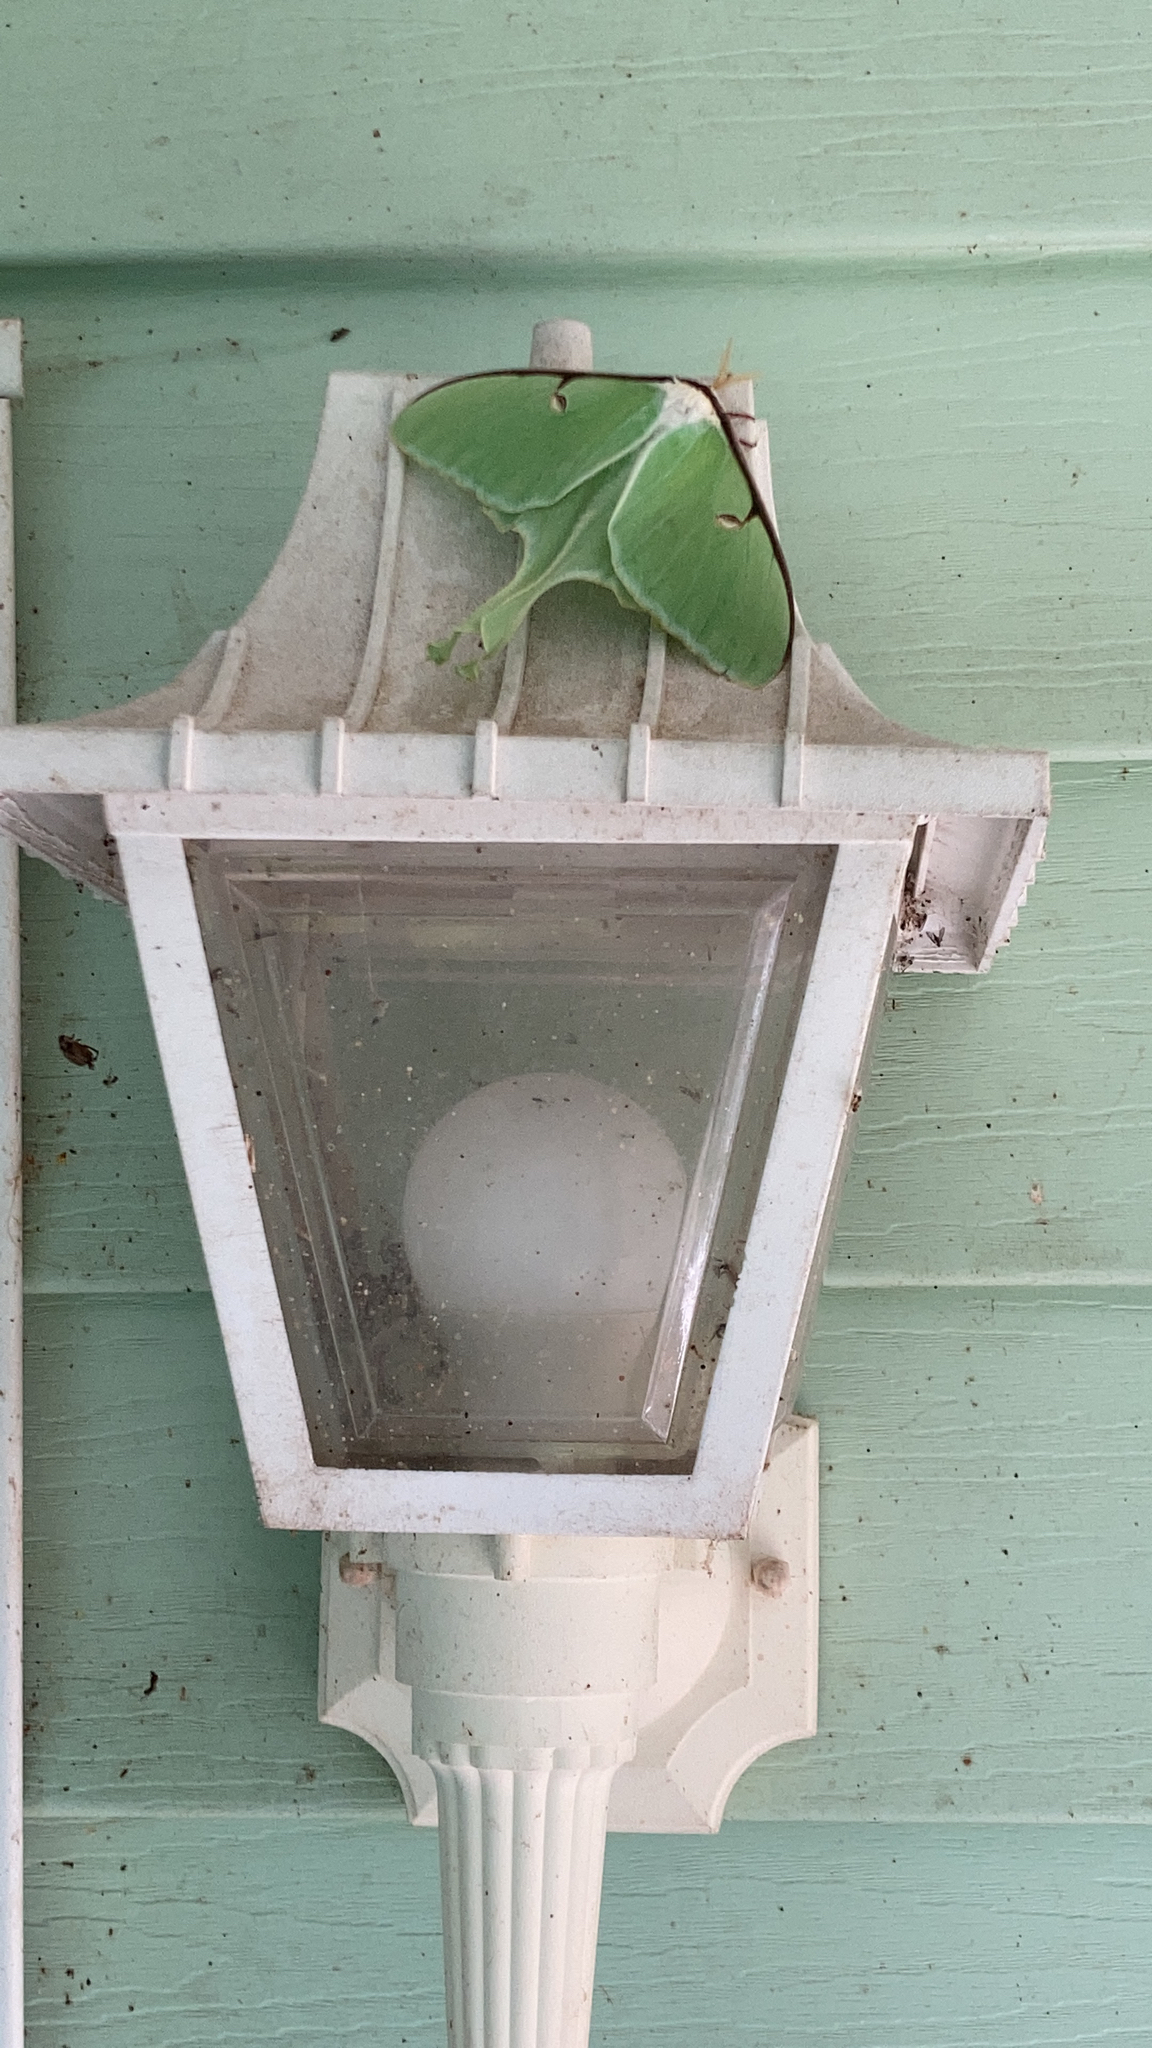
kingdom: Animalia
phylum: Arthropoda
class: Insecta
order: Lepidoptera
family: Saturniidae
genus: Actias
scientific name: Actias luna
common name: Luna moth
